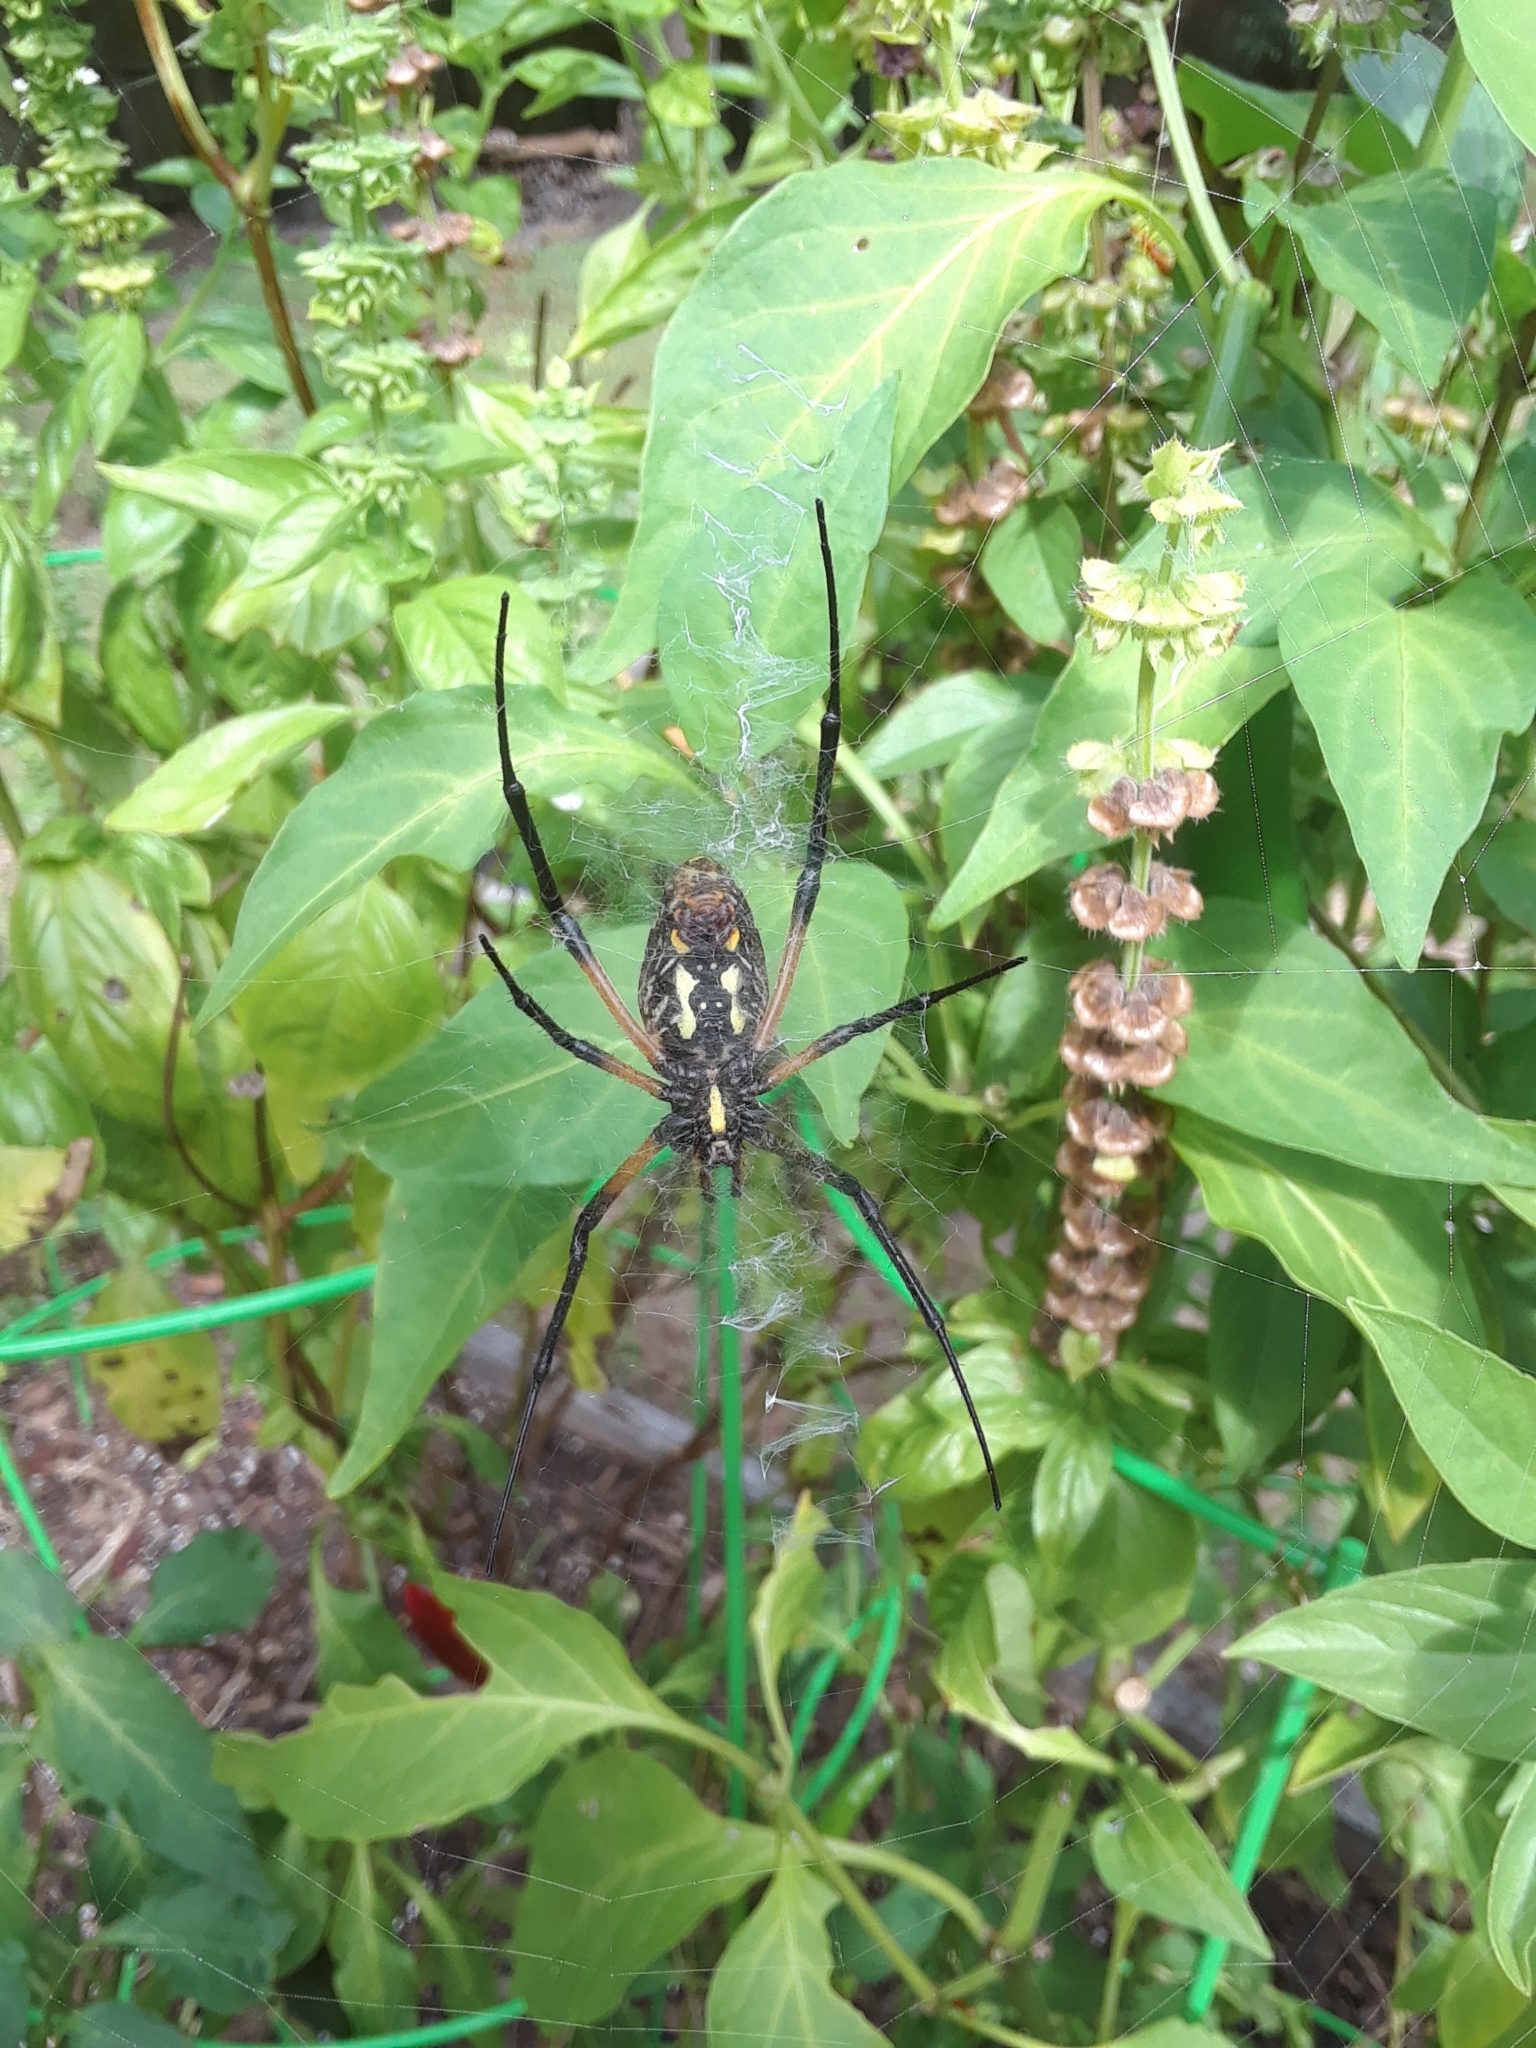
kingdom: Animalia
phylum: Arthropoda
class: Arachnida
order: Araneae
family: Araneidae
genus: Argiope
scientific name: Argiope aurantia
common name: Orb weavers
